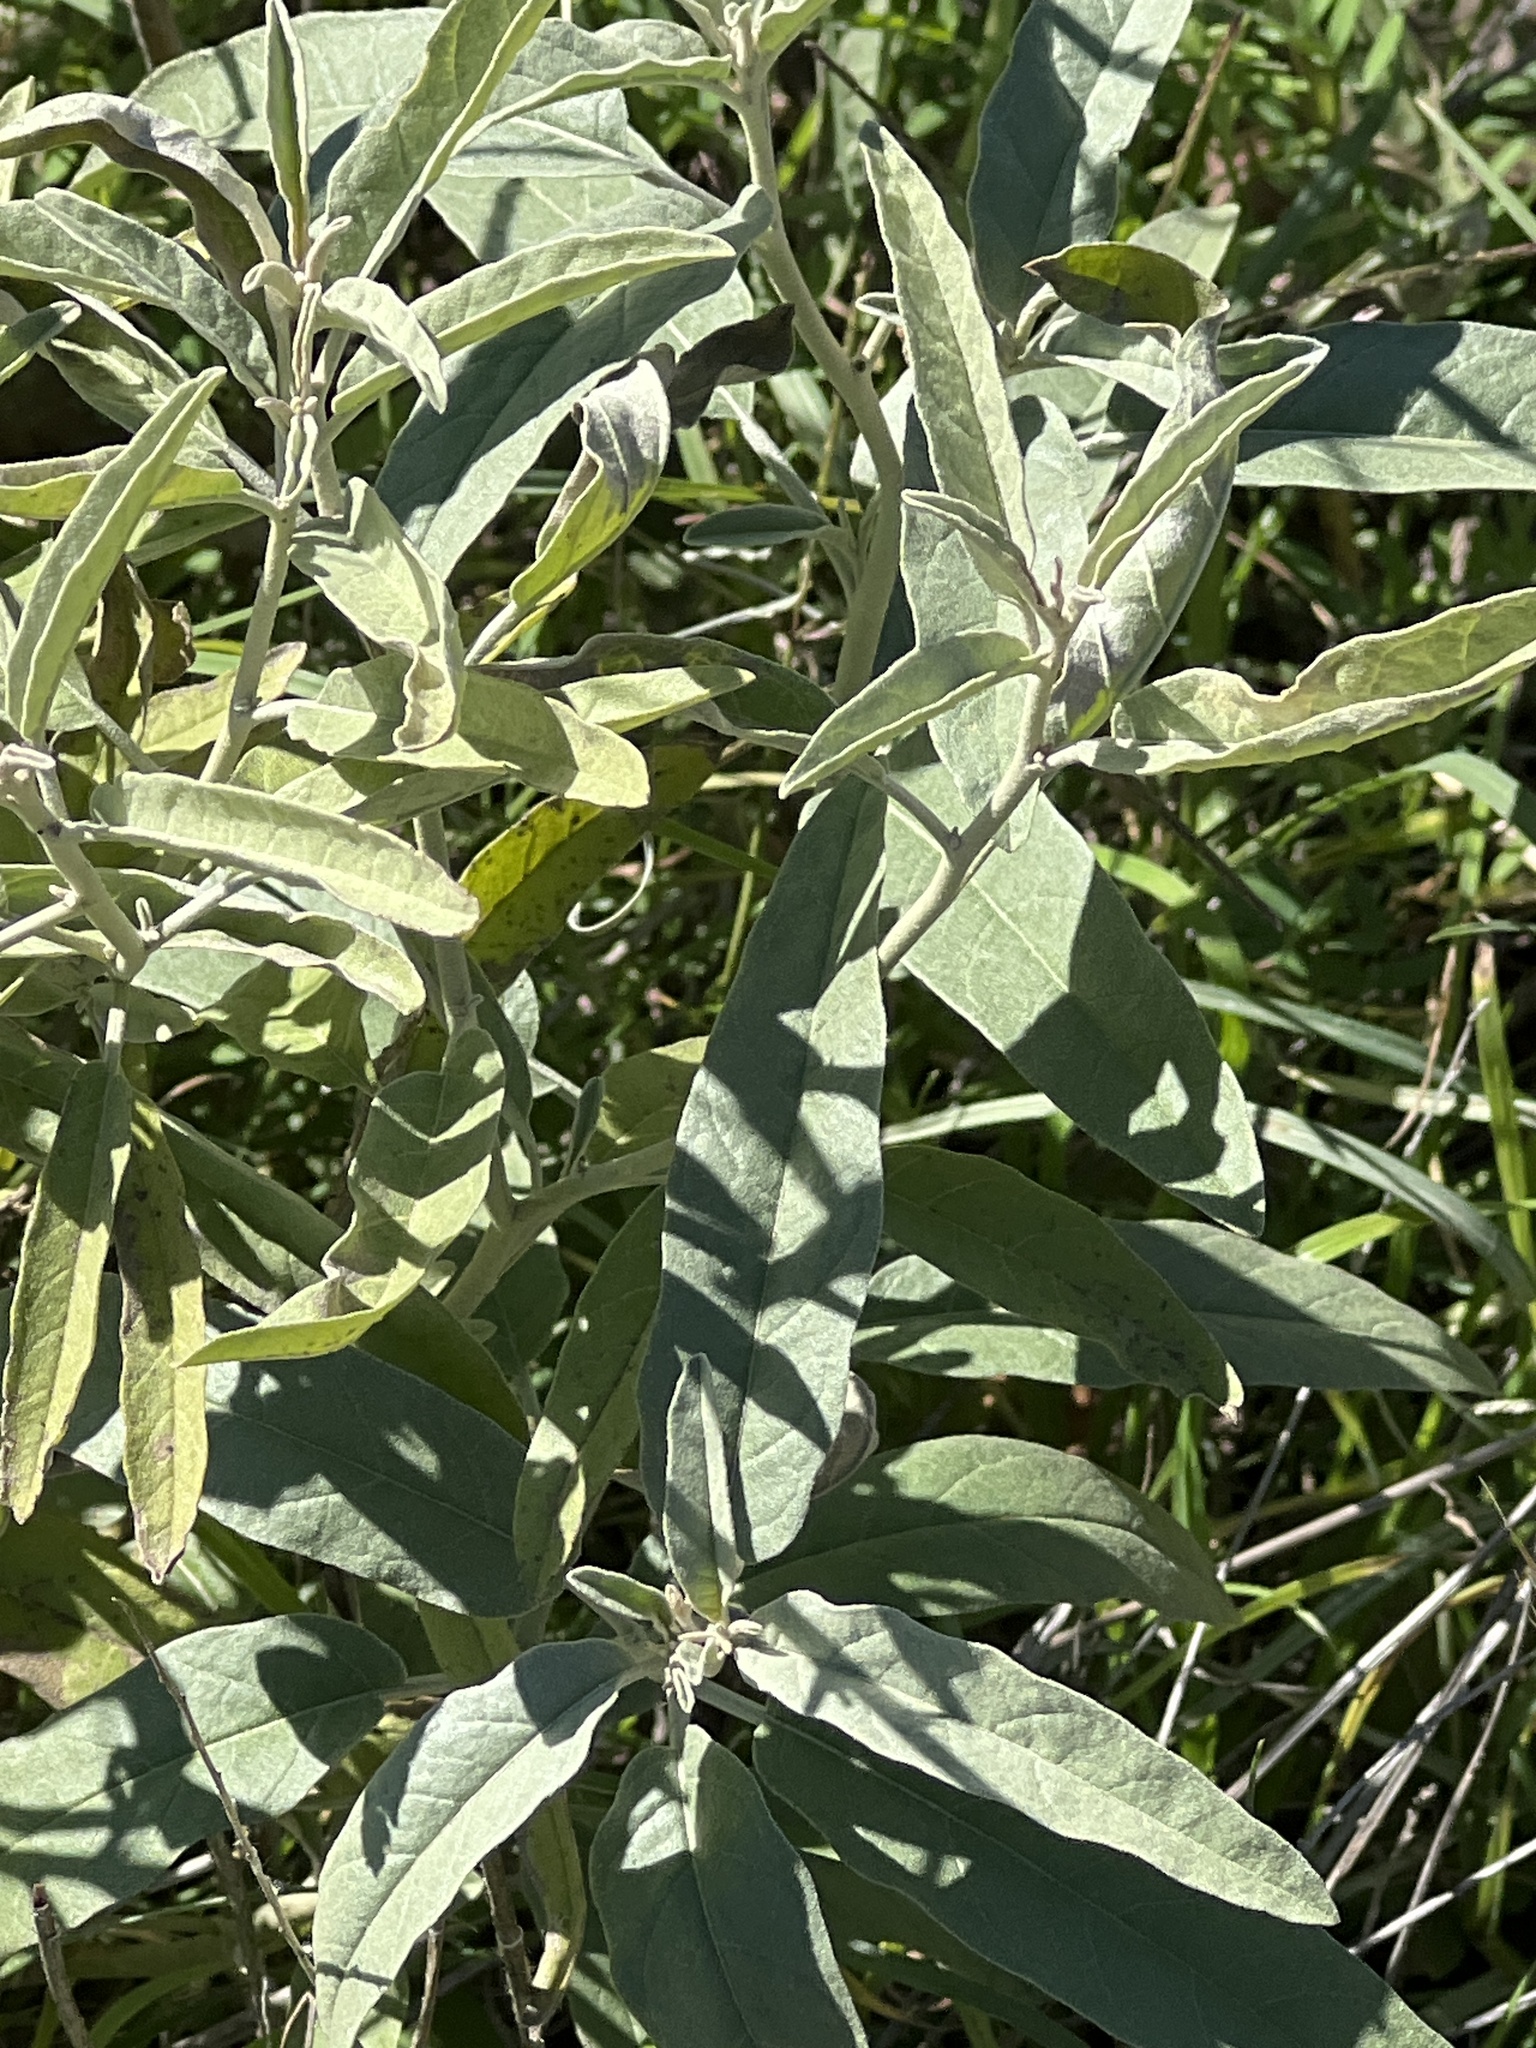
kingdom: Plantae
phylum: Tracheophyta
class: Magnoliopsida
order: Solanales
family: Solanaceae
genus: Solanum
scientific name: Solanum elaeagnifolium
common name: Silverleaf nightshade
